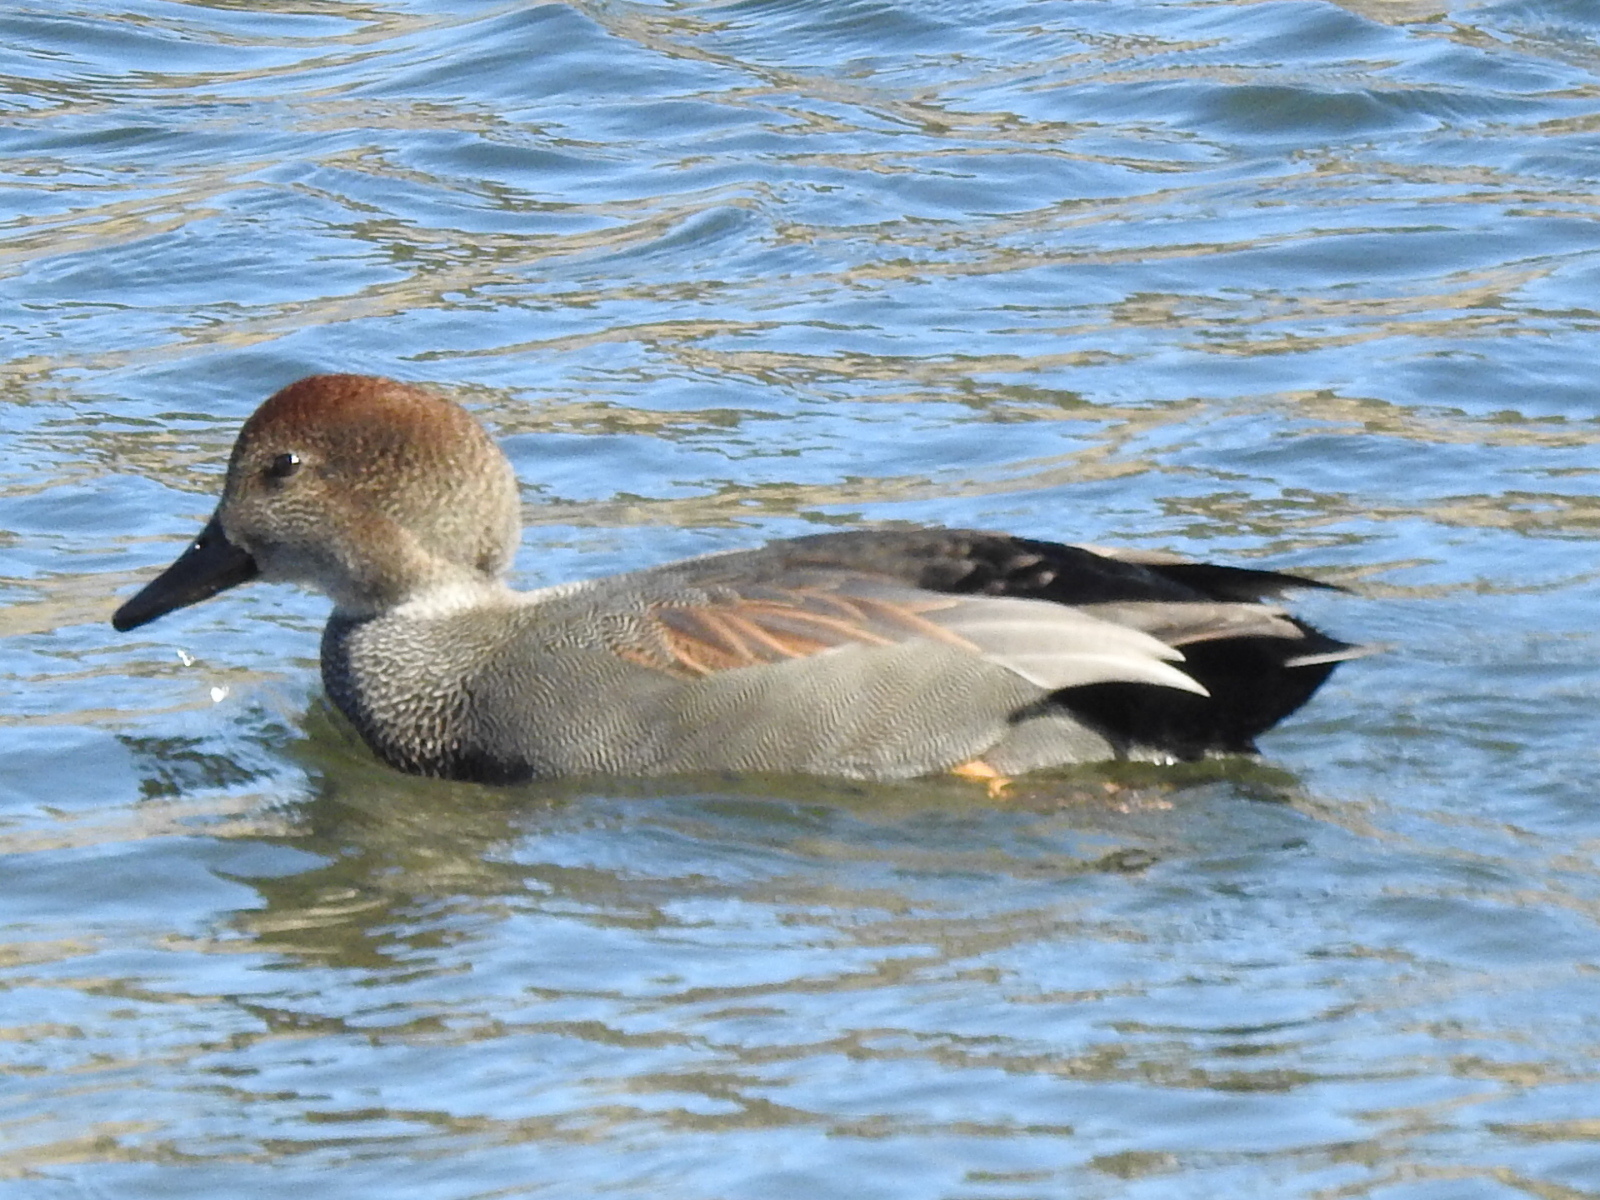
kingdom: Animalia
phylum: Chordata
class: Aves
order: Anseriformes
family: Anatidae
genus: Mareca
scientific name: Mareca strepera
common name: Gadwall
